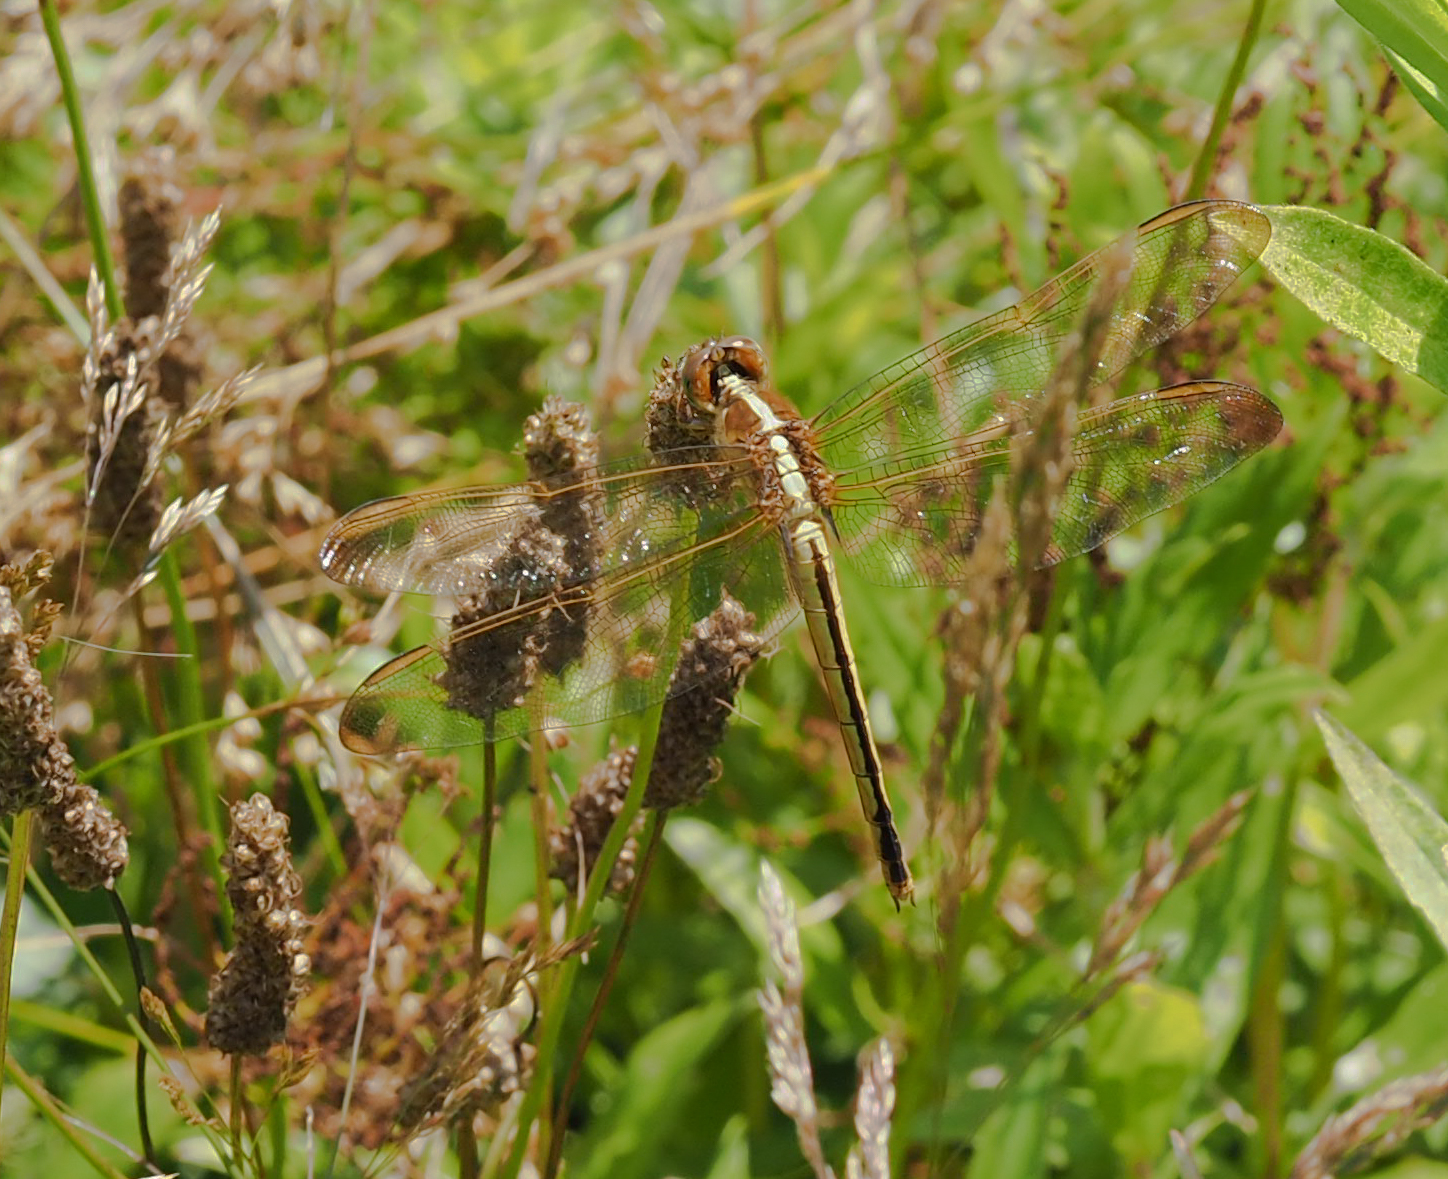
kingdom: Animalia
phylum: Arthropoda
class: Insecta
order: Odonata
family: Libellulidae
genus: Libellula
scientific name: Libellula needhami
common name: Needham's skimmer
